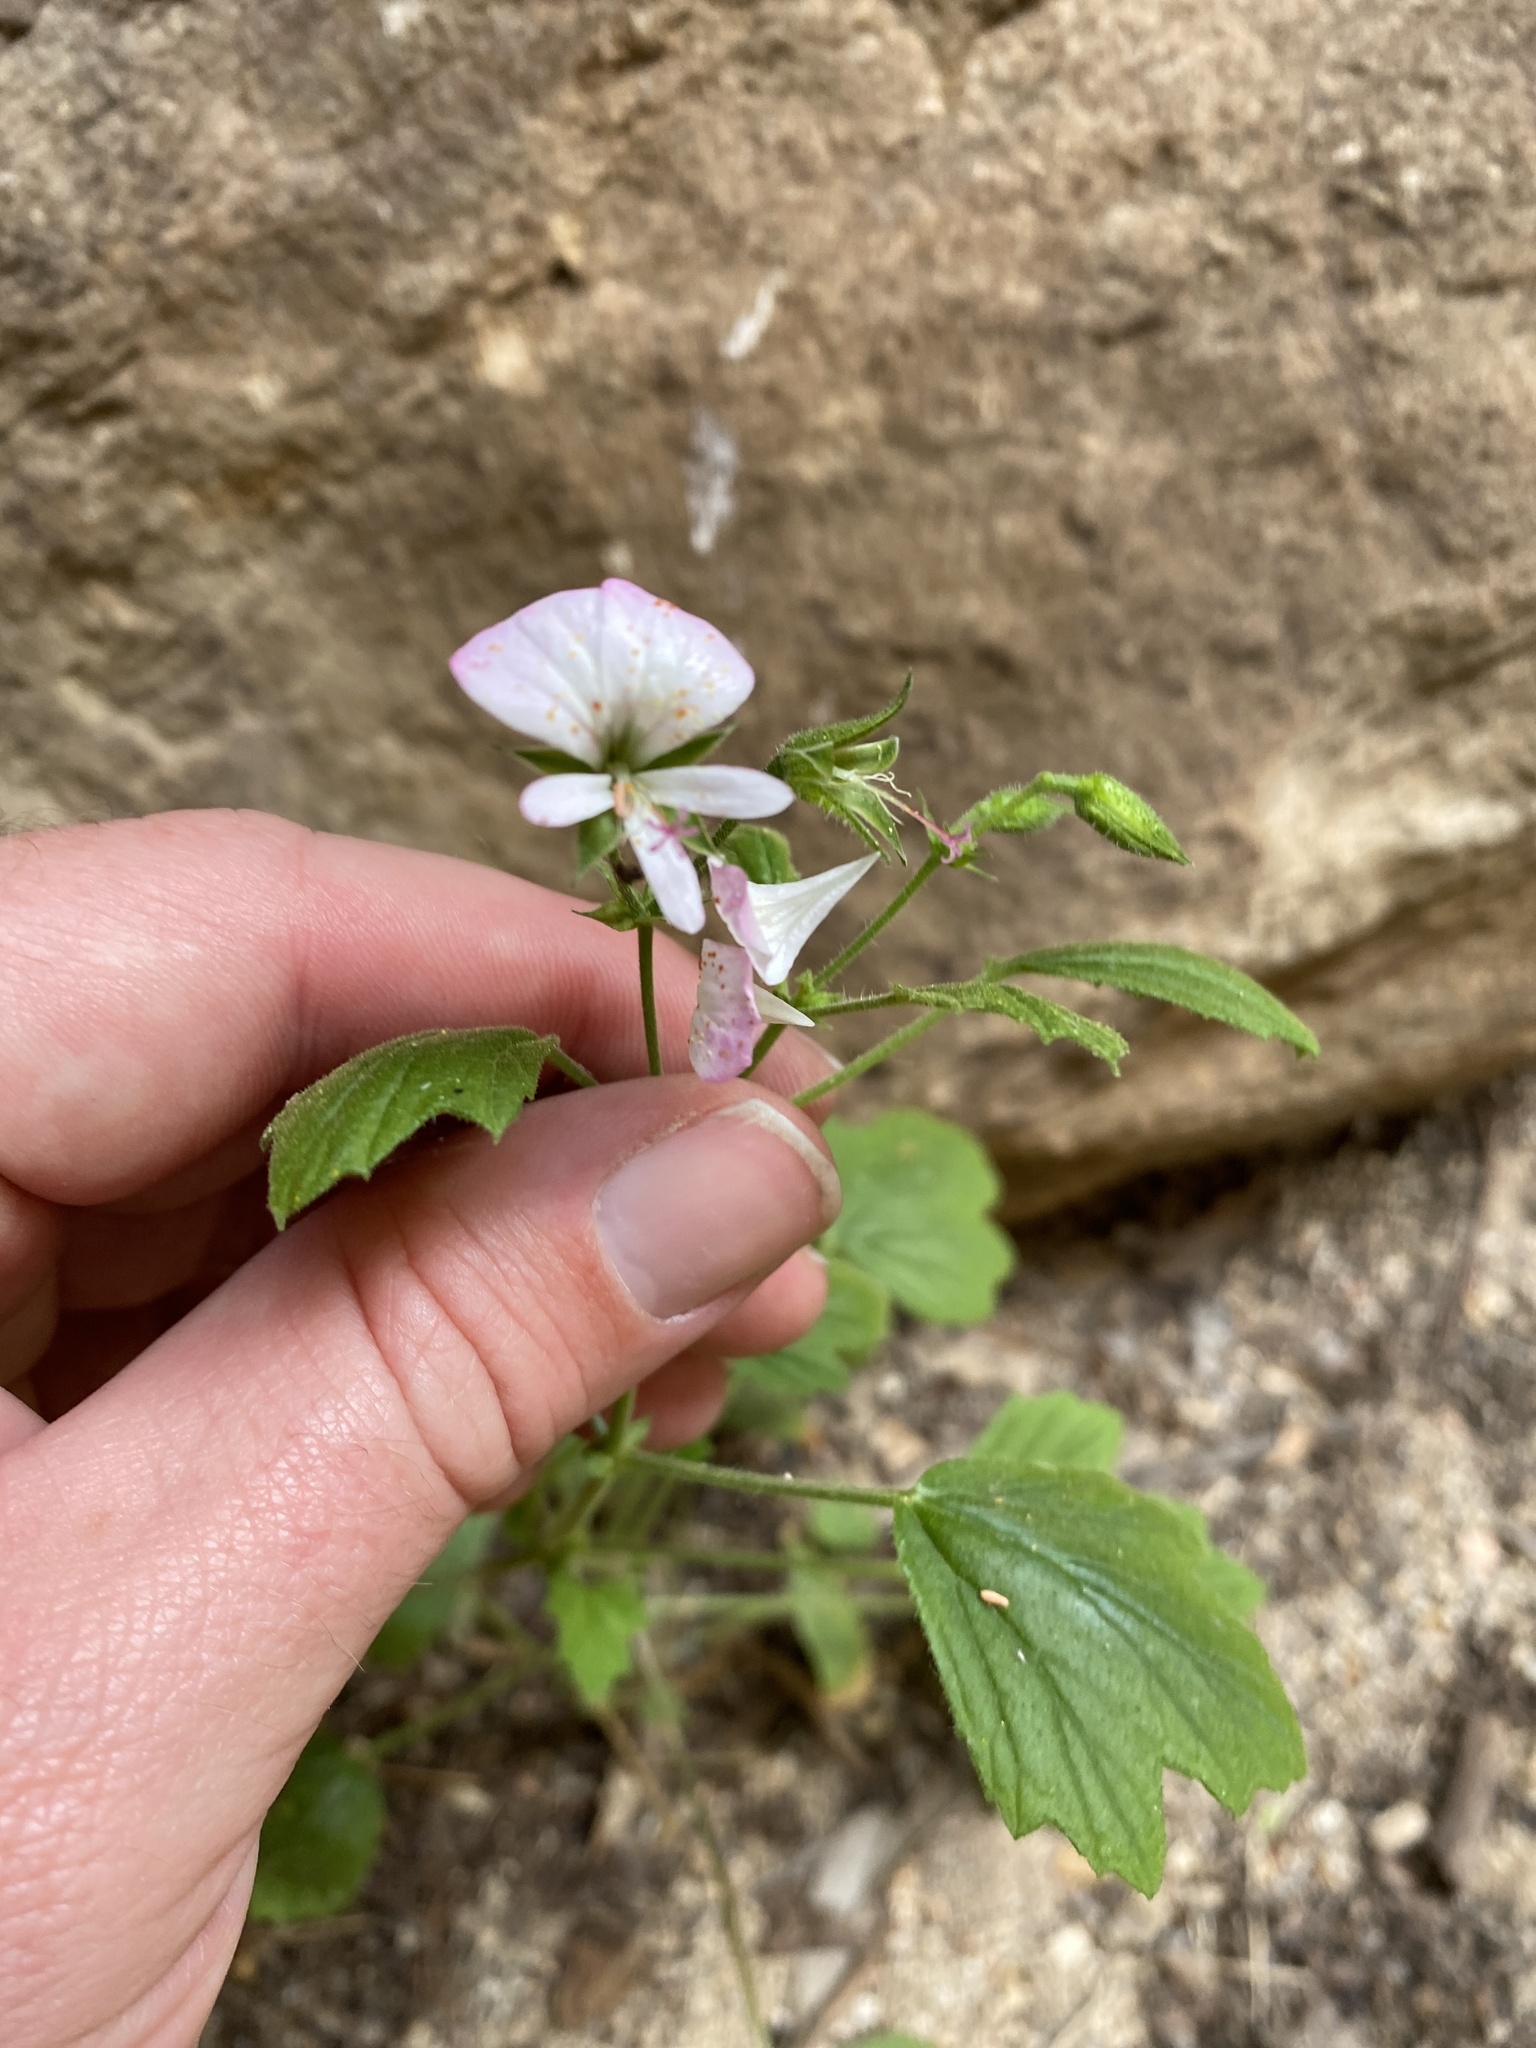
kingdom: Plantae
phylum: Tracheophyta
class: Magnoliopsida
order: Geraniales
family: Geraniaceae
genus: Pelargonium
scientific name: Pelargonium ribifolium
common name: Currant-leaf pelargonium
